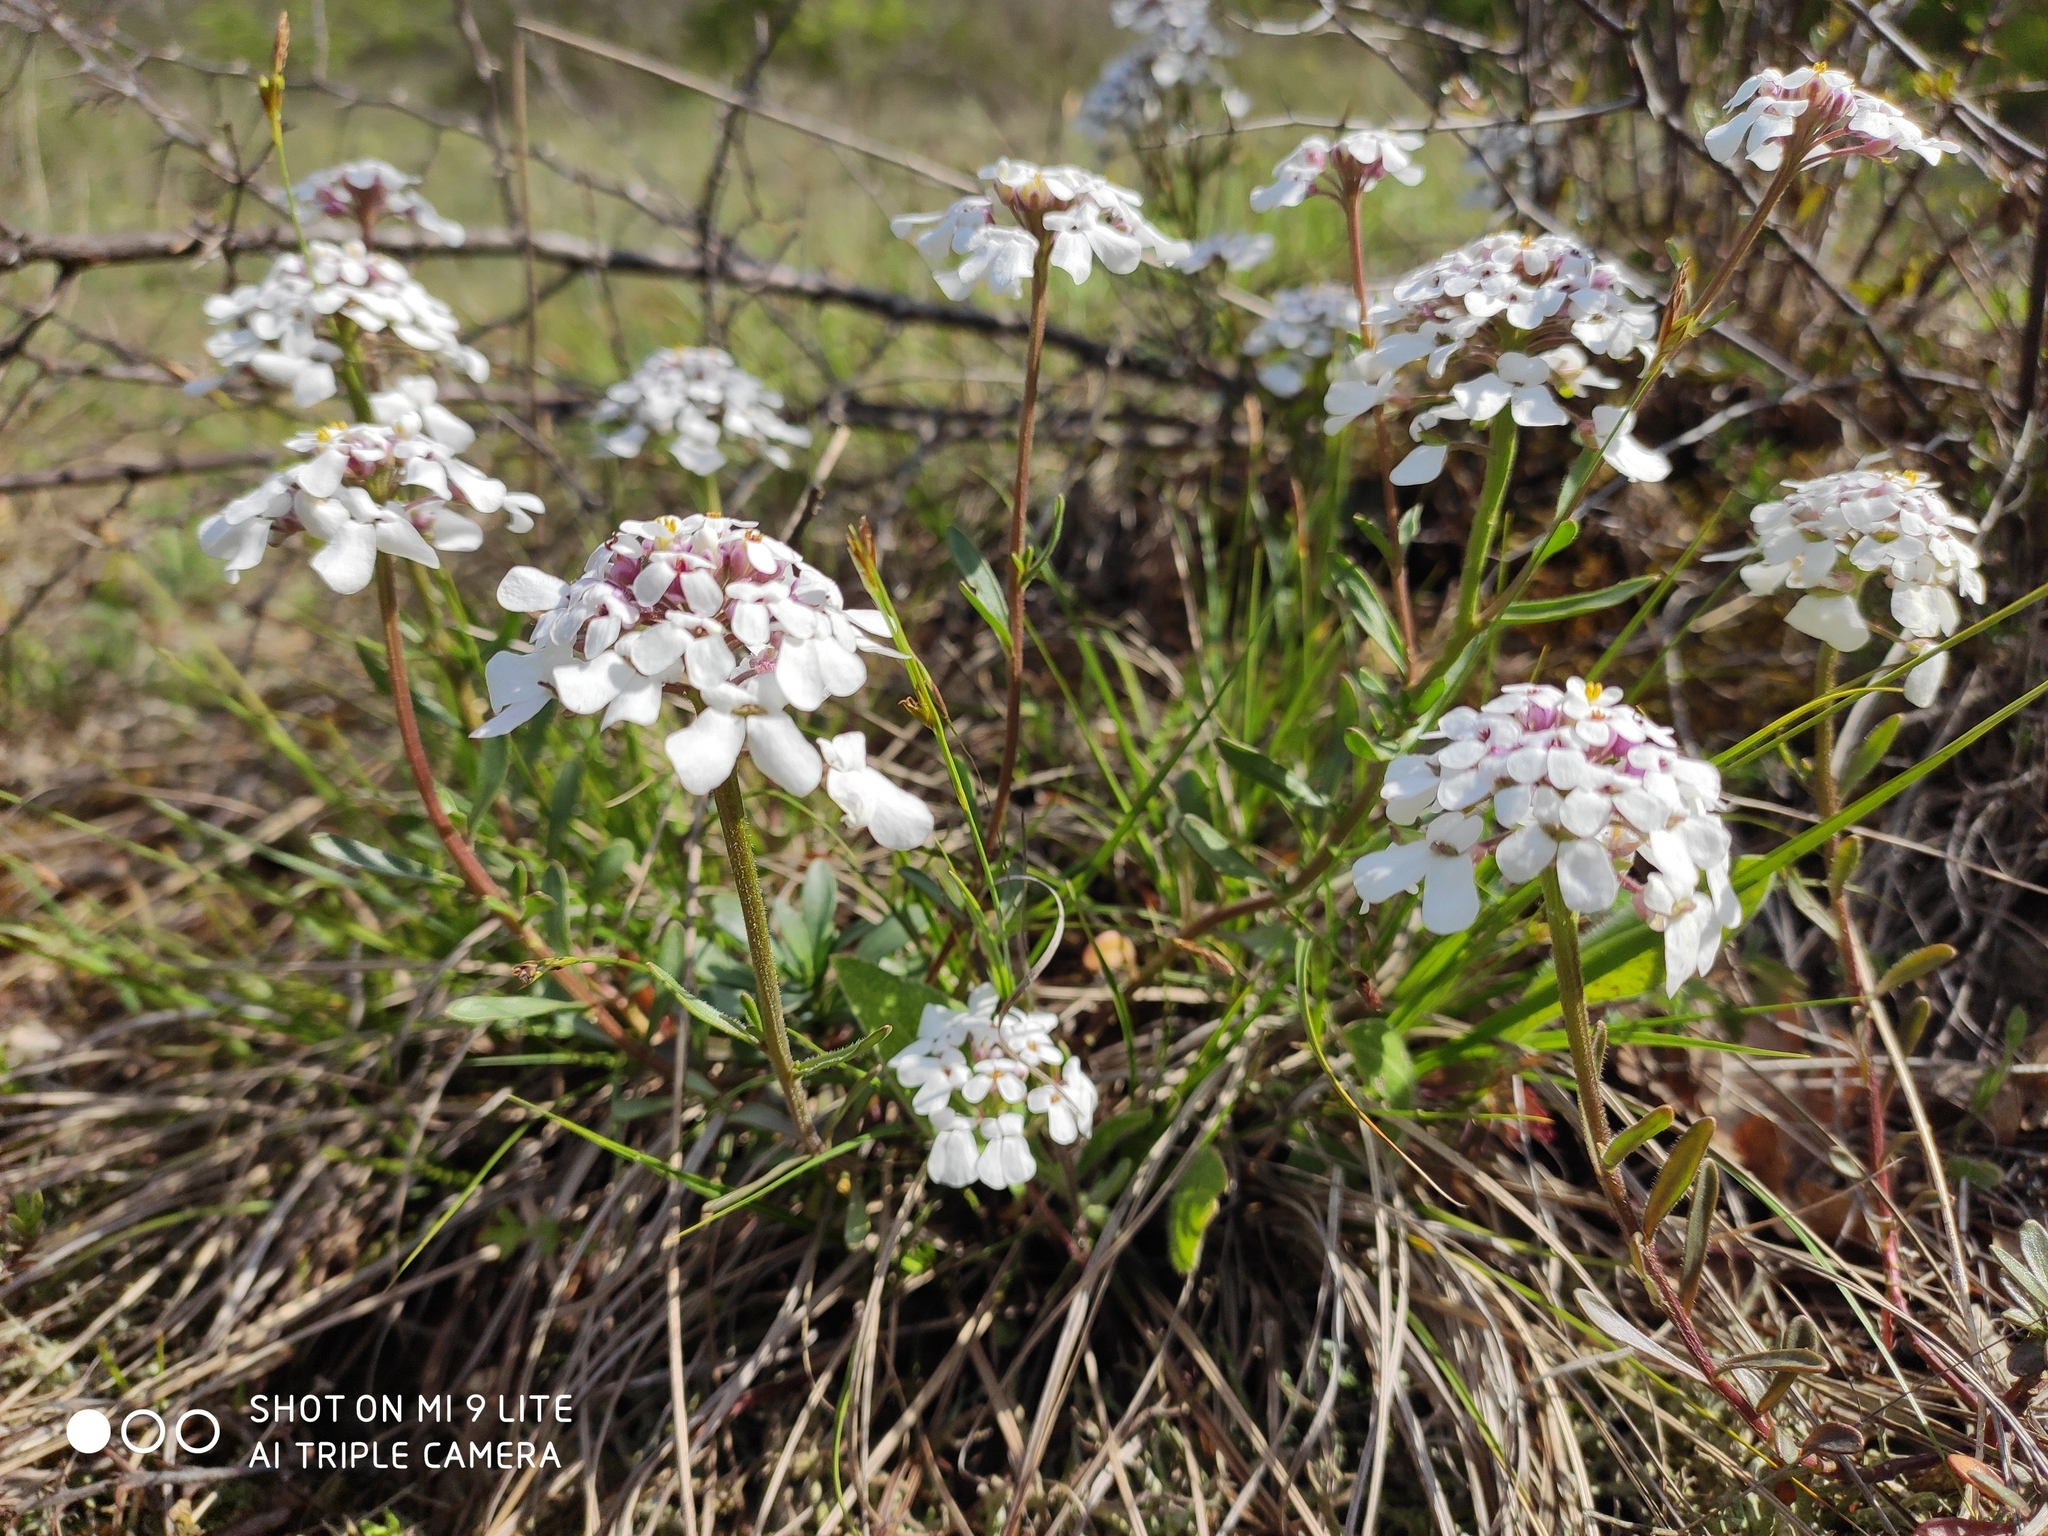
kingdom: Plantae
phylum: Tracheophyta
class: Magnoliopsida
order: Brassicales
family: Brassicaceae
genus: Iberis
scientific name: Iberis simplex
